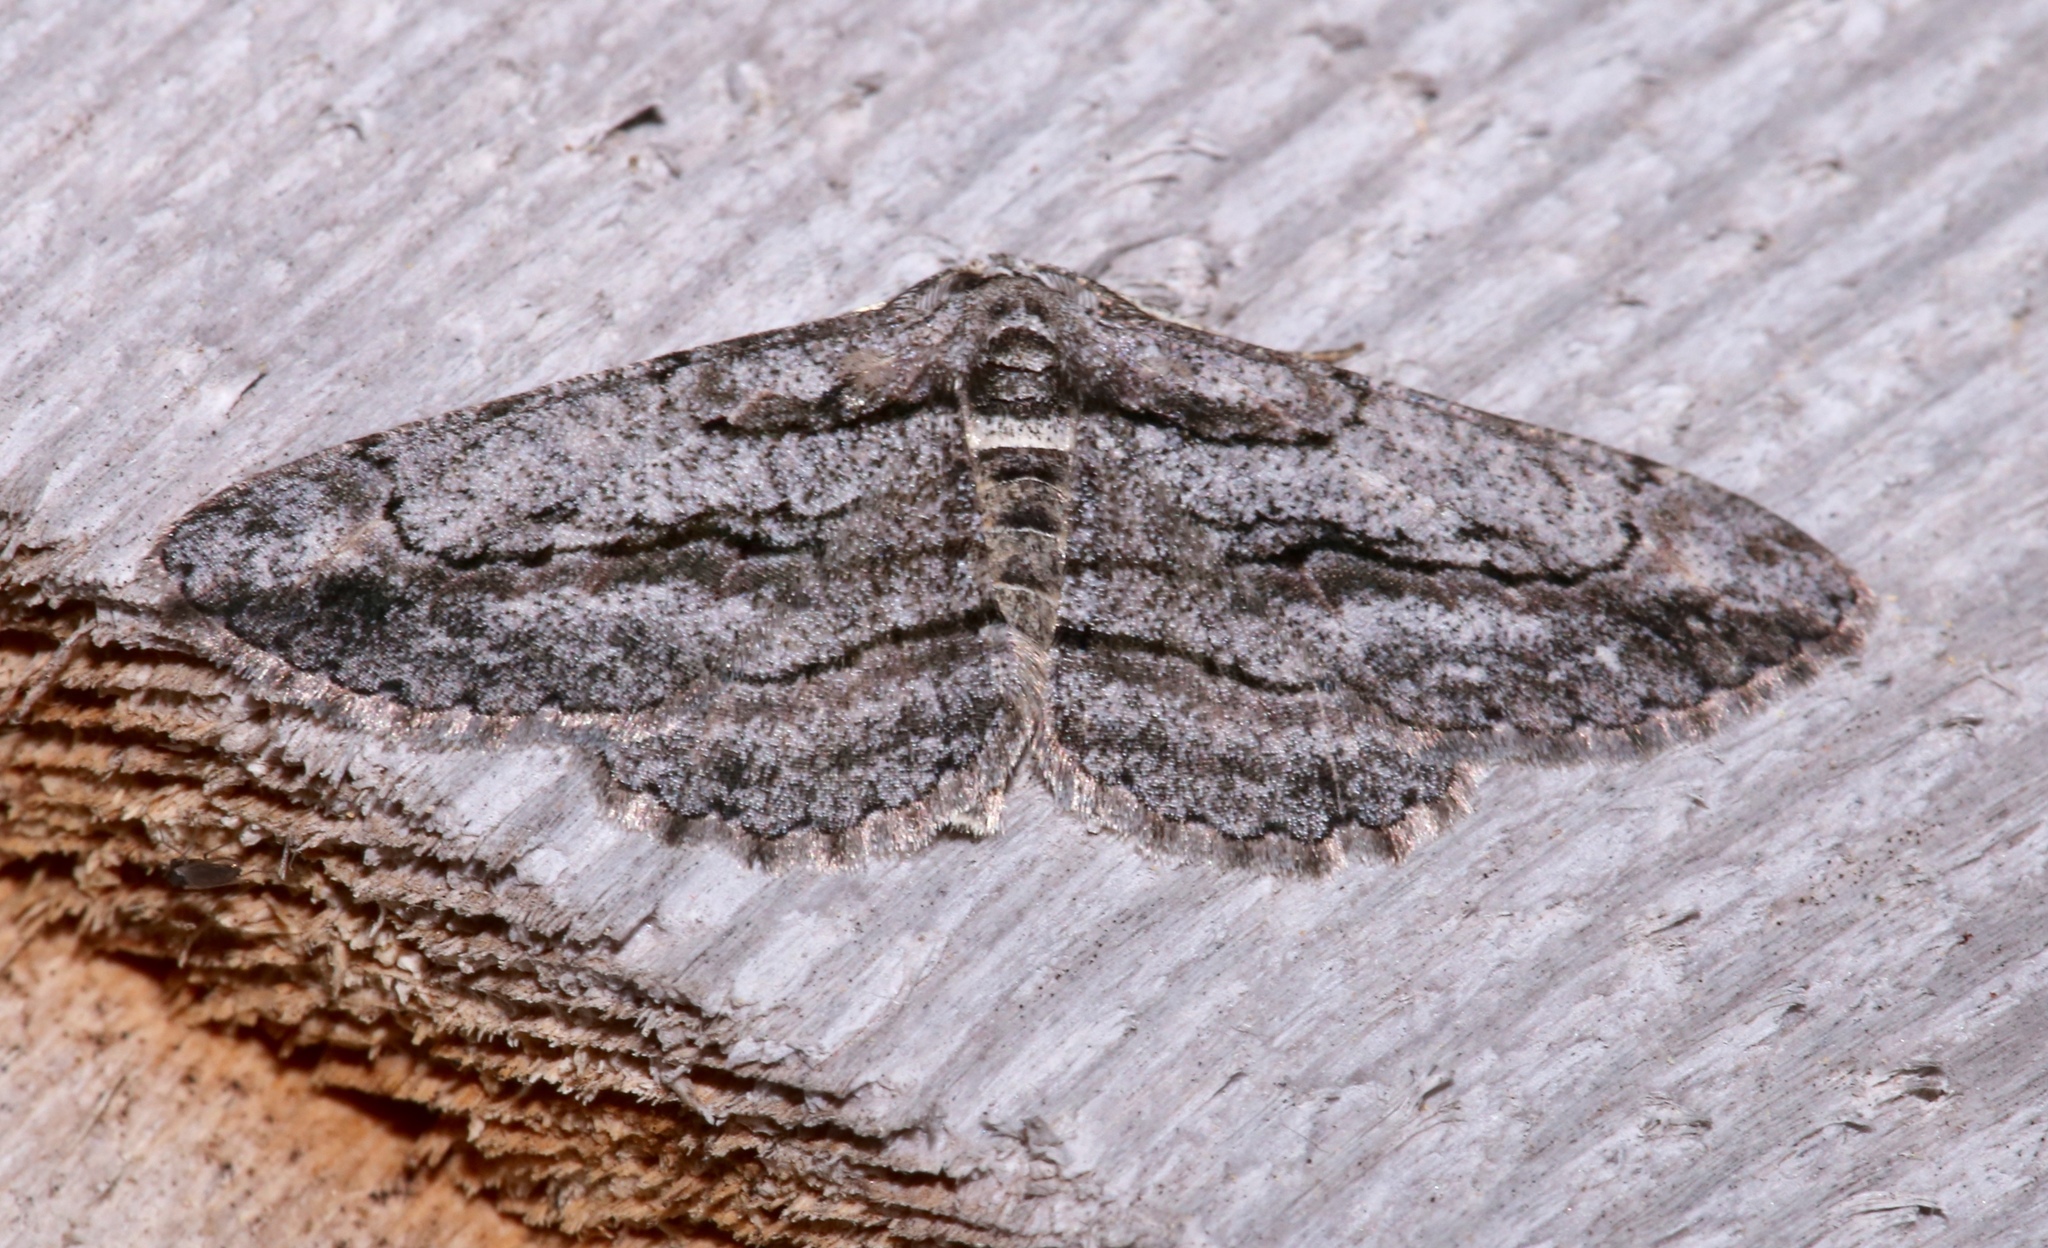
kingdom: Animalia
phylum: Arthropoda
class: Insecta
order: Lepidoptera
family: Geometridae
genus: Anavitrinella
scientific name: Anavitrinella pampinaria
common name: Common gray
